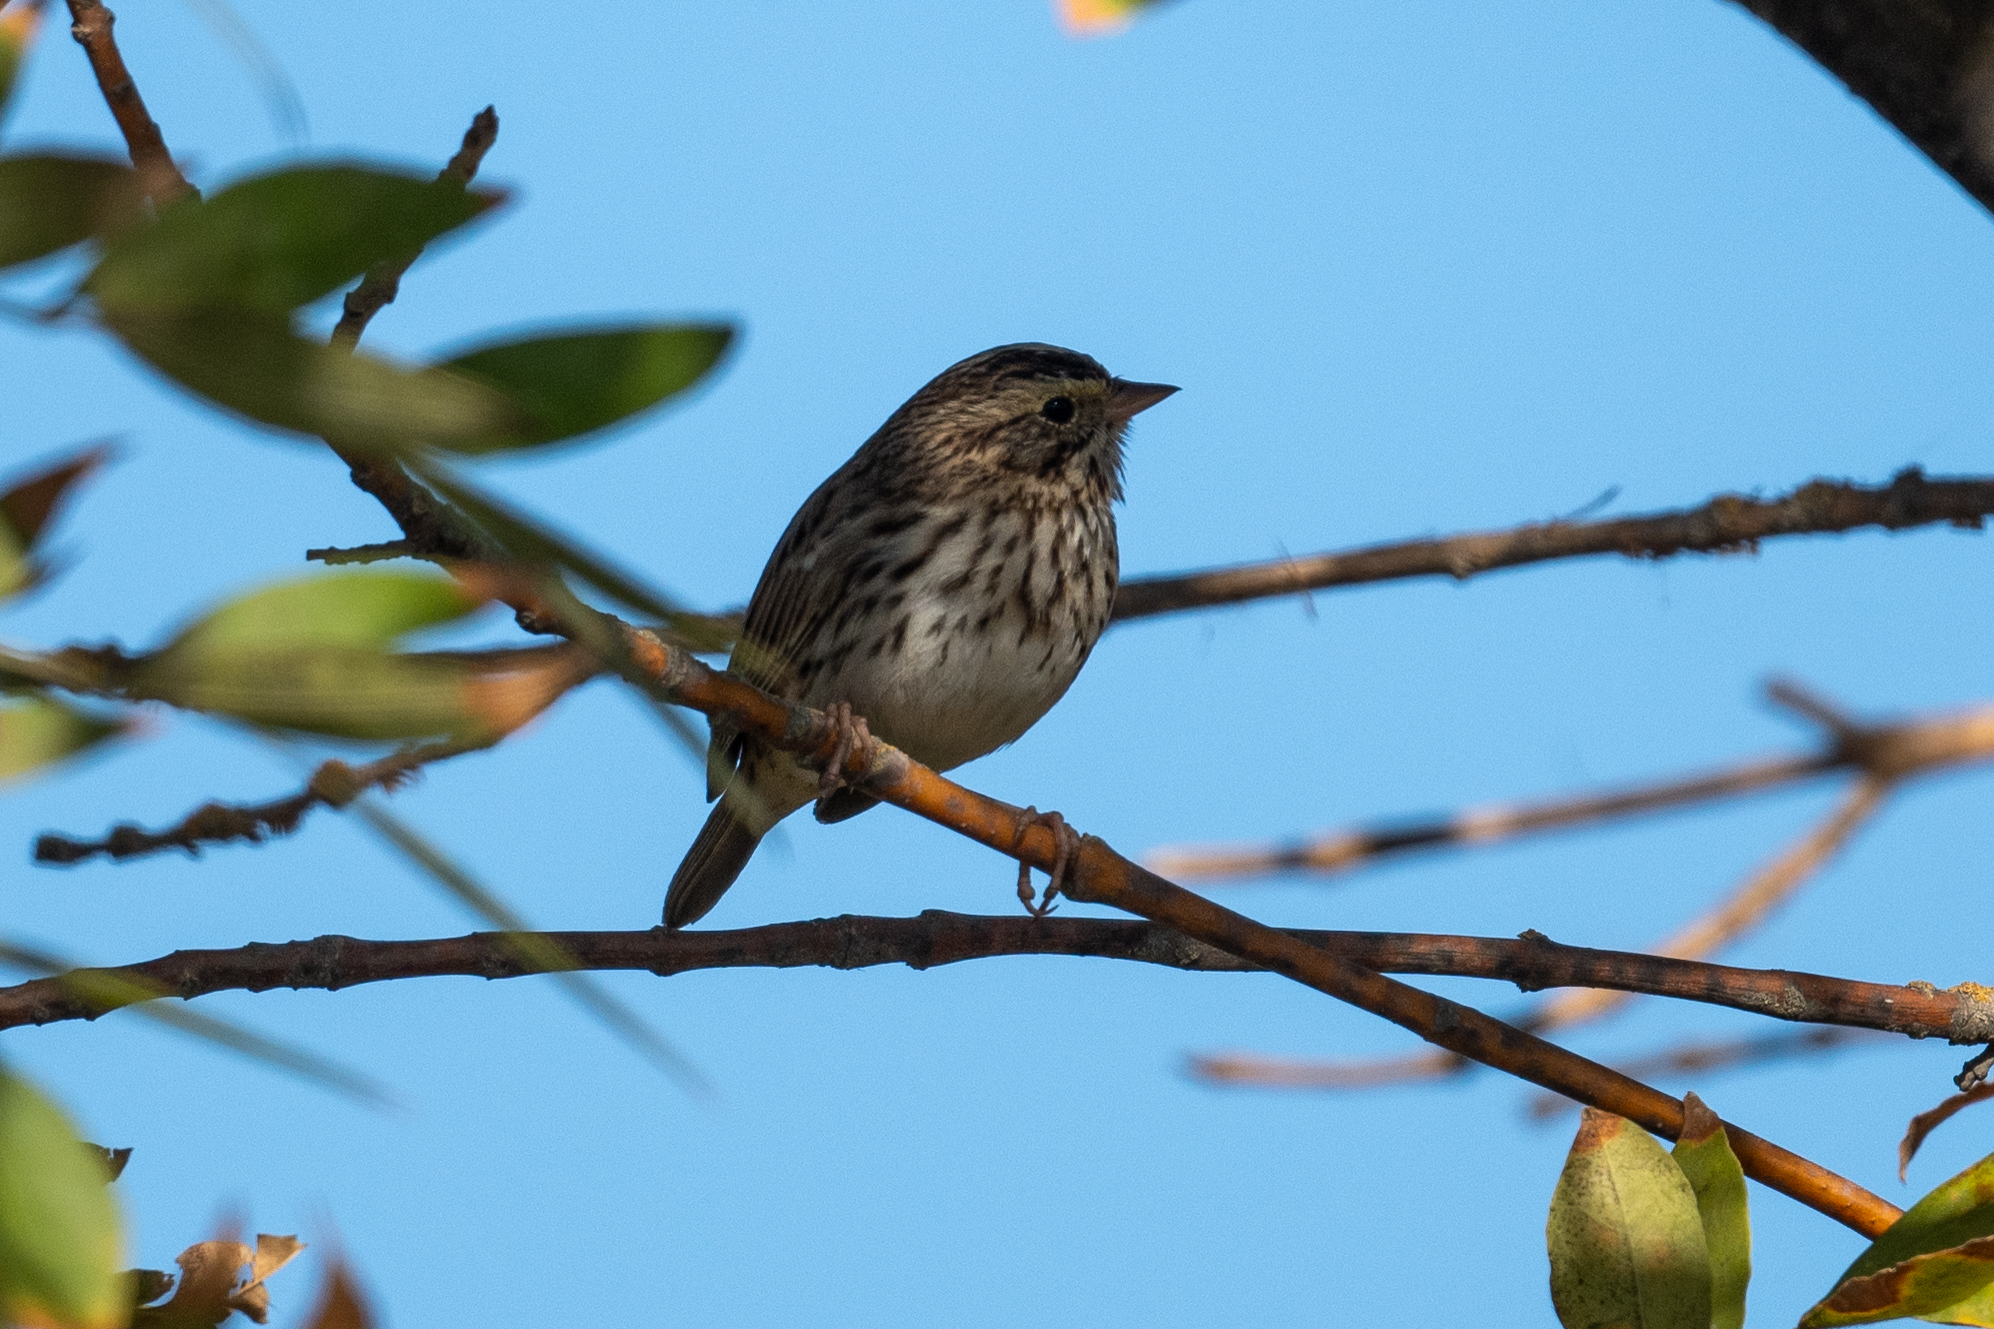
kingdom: Animalia
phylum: Chordata
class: Aves
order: Passeriformes
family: Passerellidae
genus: Passerculus
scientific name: Passerculus sandwichensis
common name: Savannah sparrow
